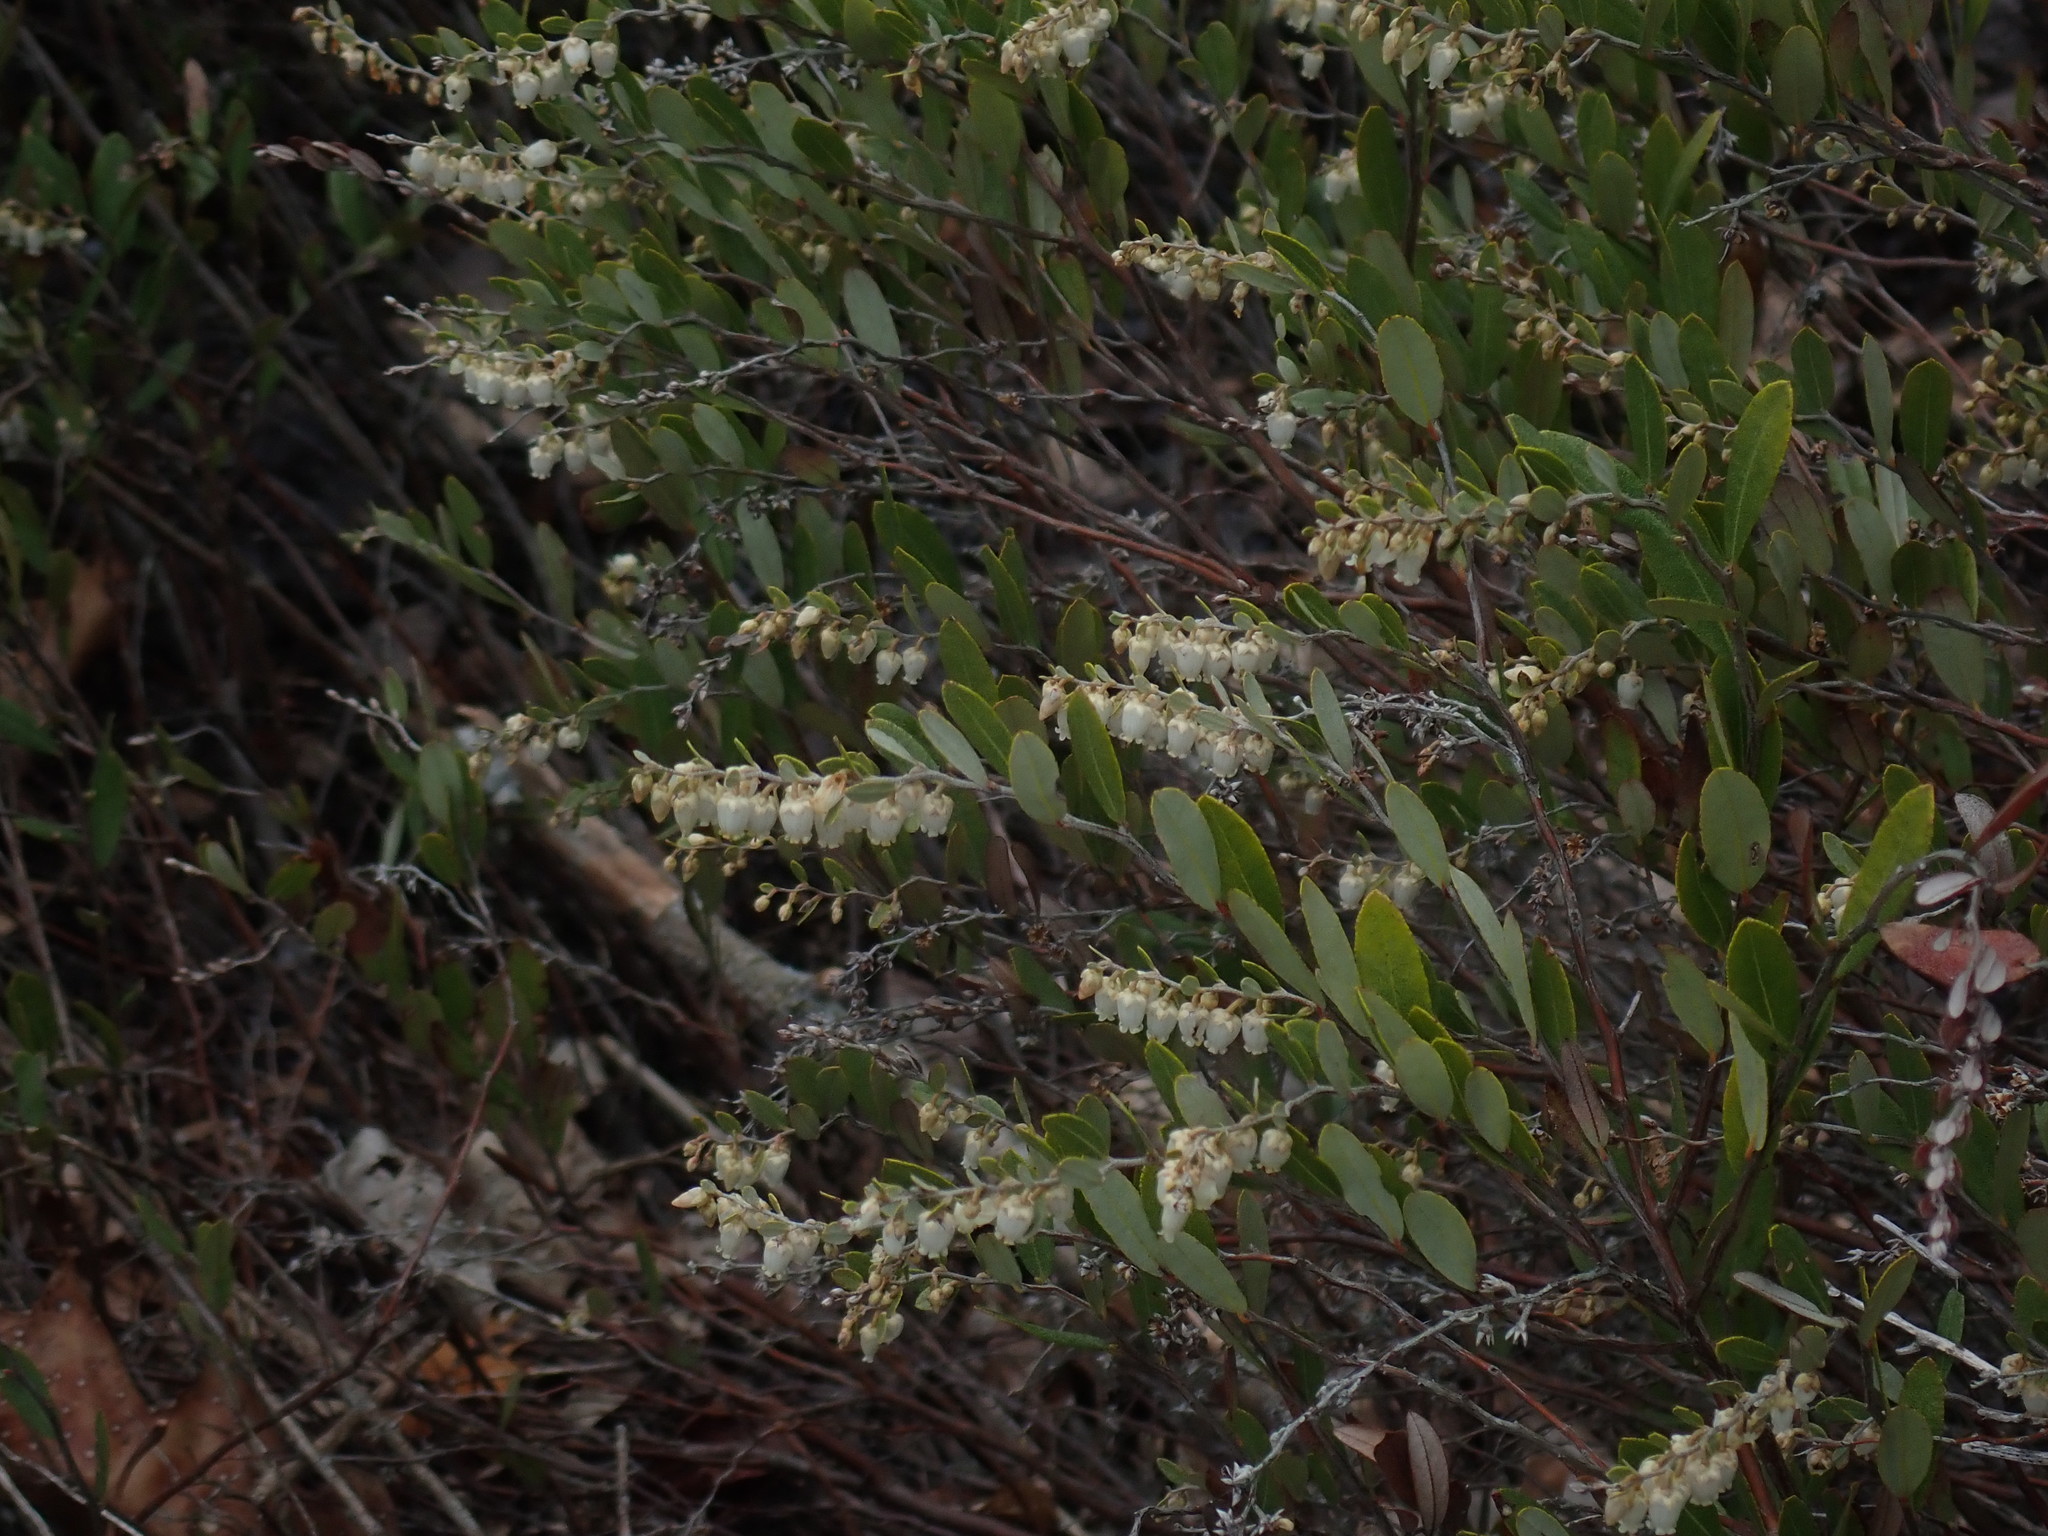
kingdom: Plantae
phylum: Tracheophyta
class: Magnoliopsida
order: Ericales
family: Ericaceae
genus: Chamaedaphne
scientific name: Chamaedaphne calyculata
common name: Leatherleaf
